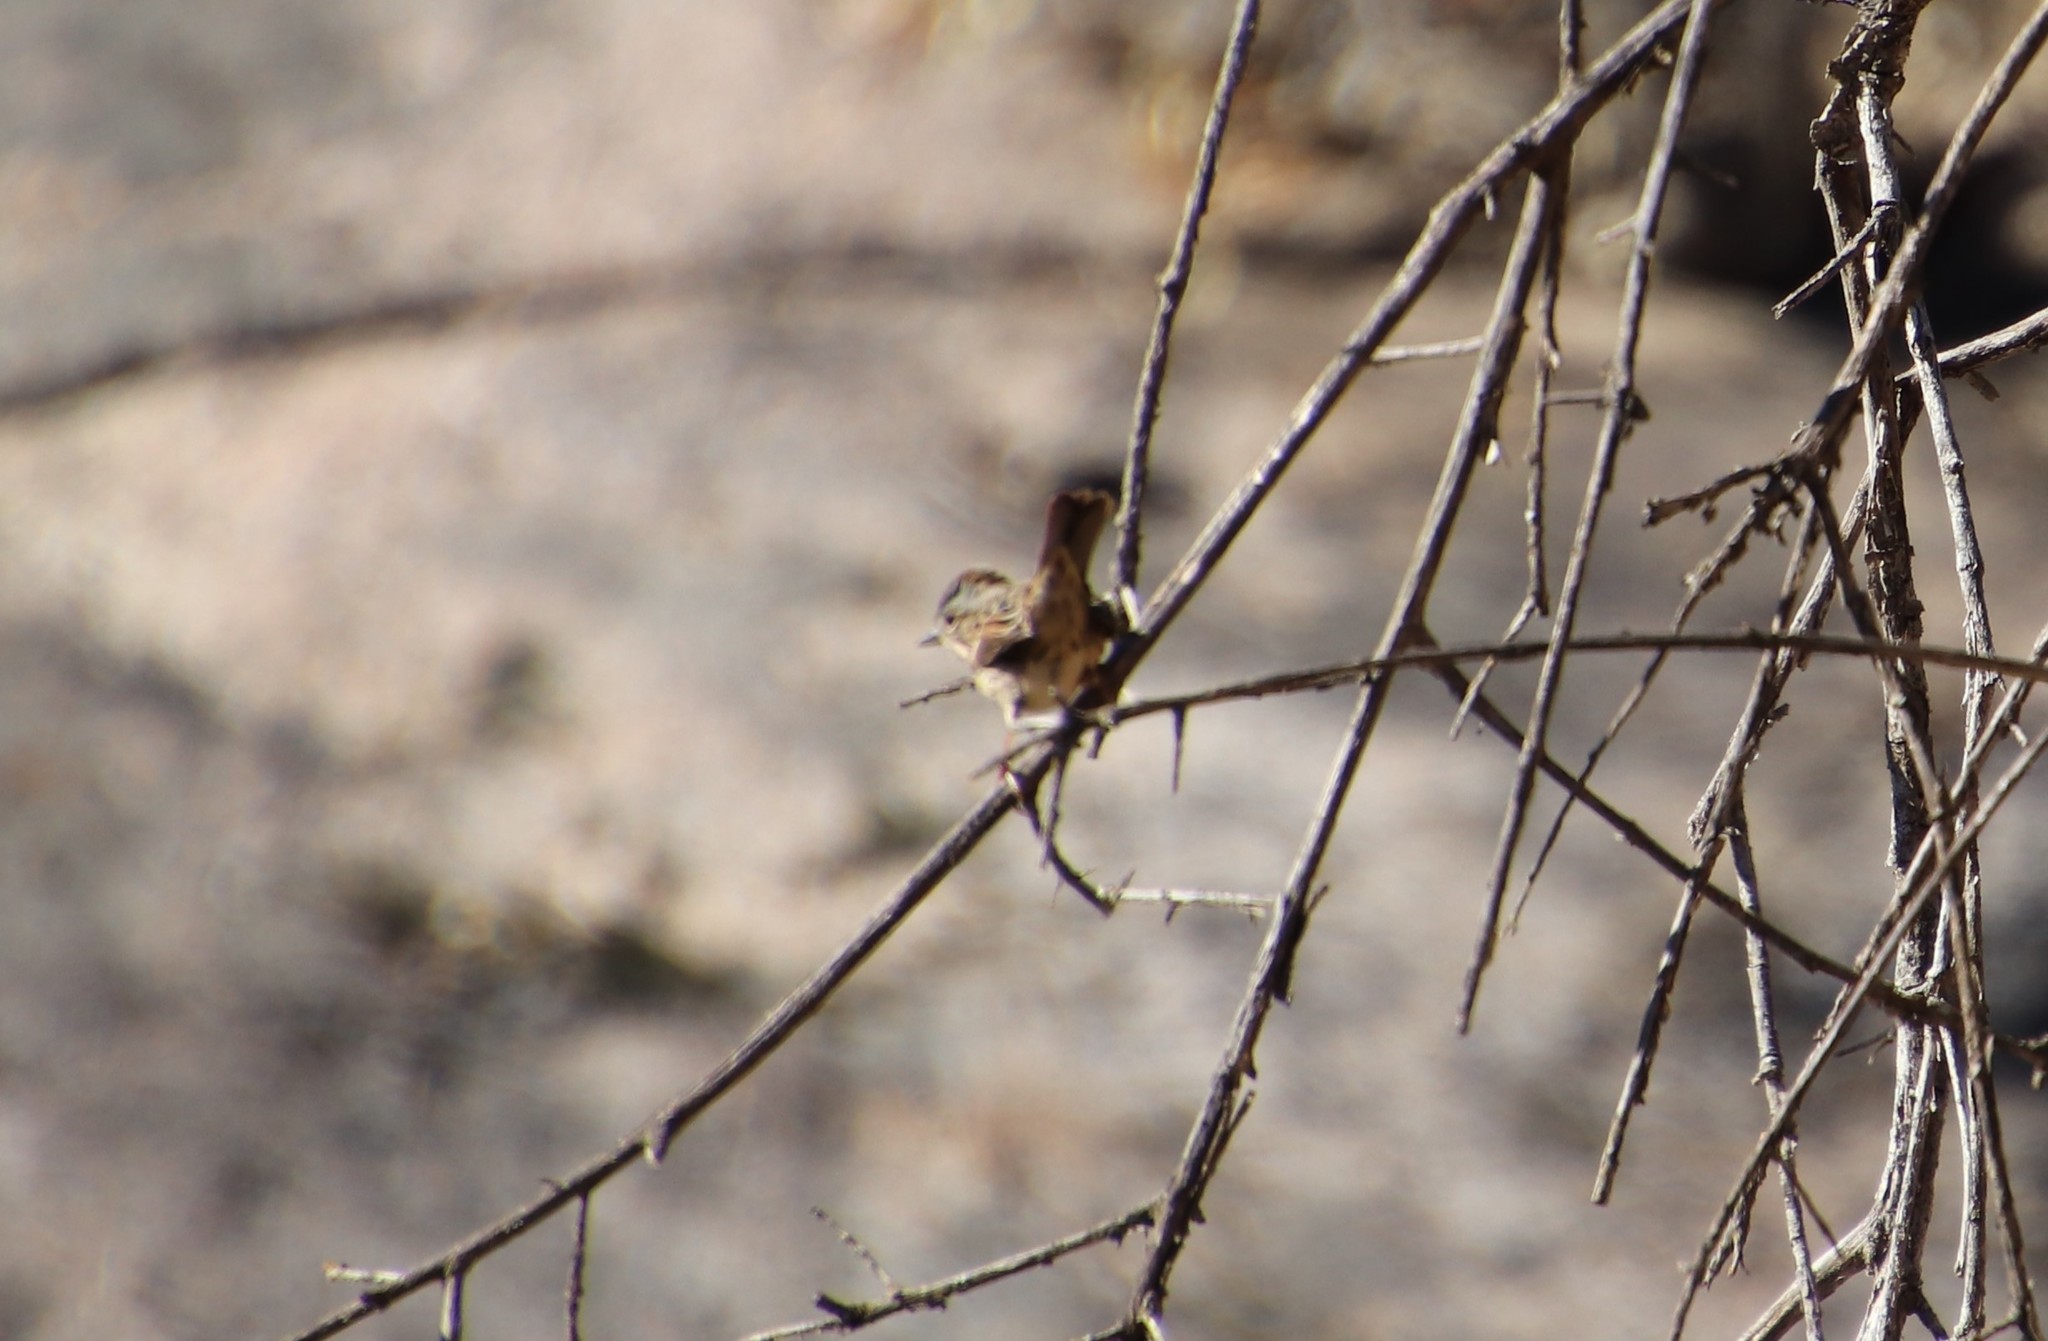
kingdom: Animalia
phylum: Chordata
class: Aves
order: Passeriformes
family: Passerellidae
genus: Melospiza
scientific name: Melospiza lincolnii
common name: Lincoln's sparrow
